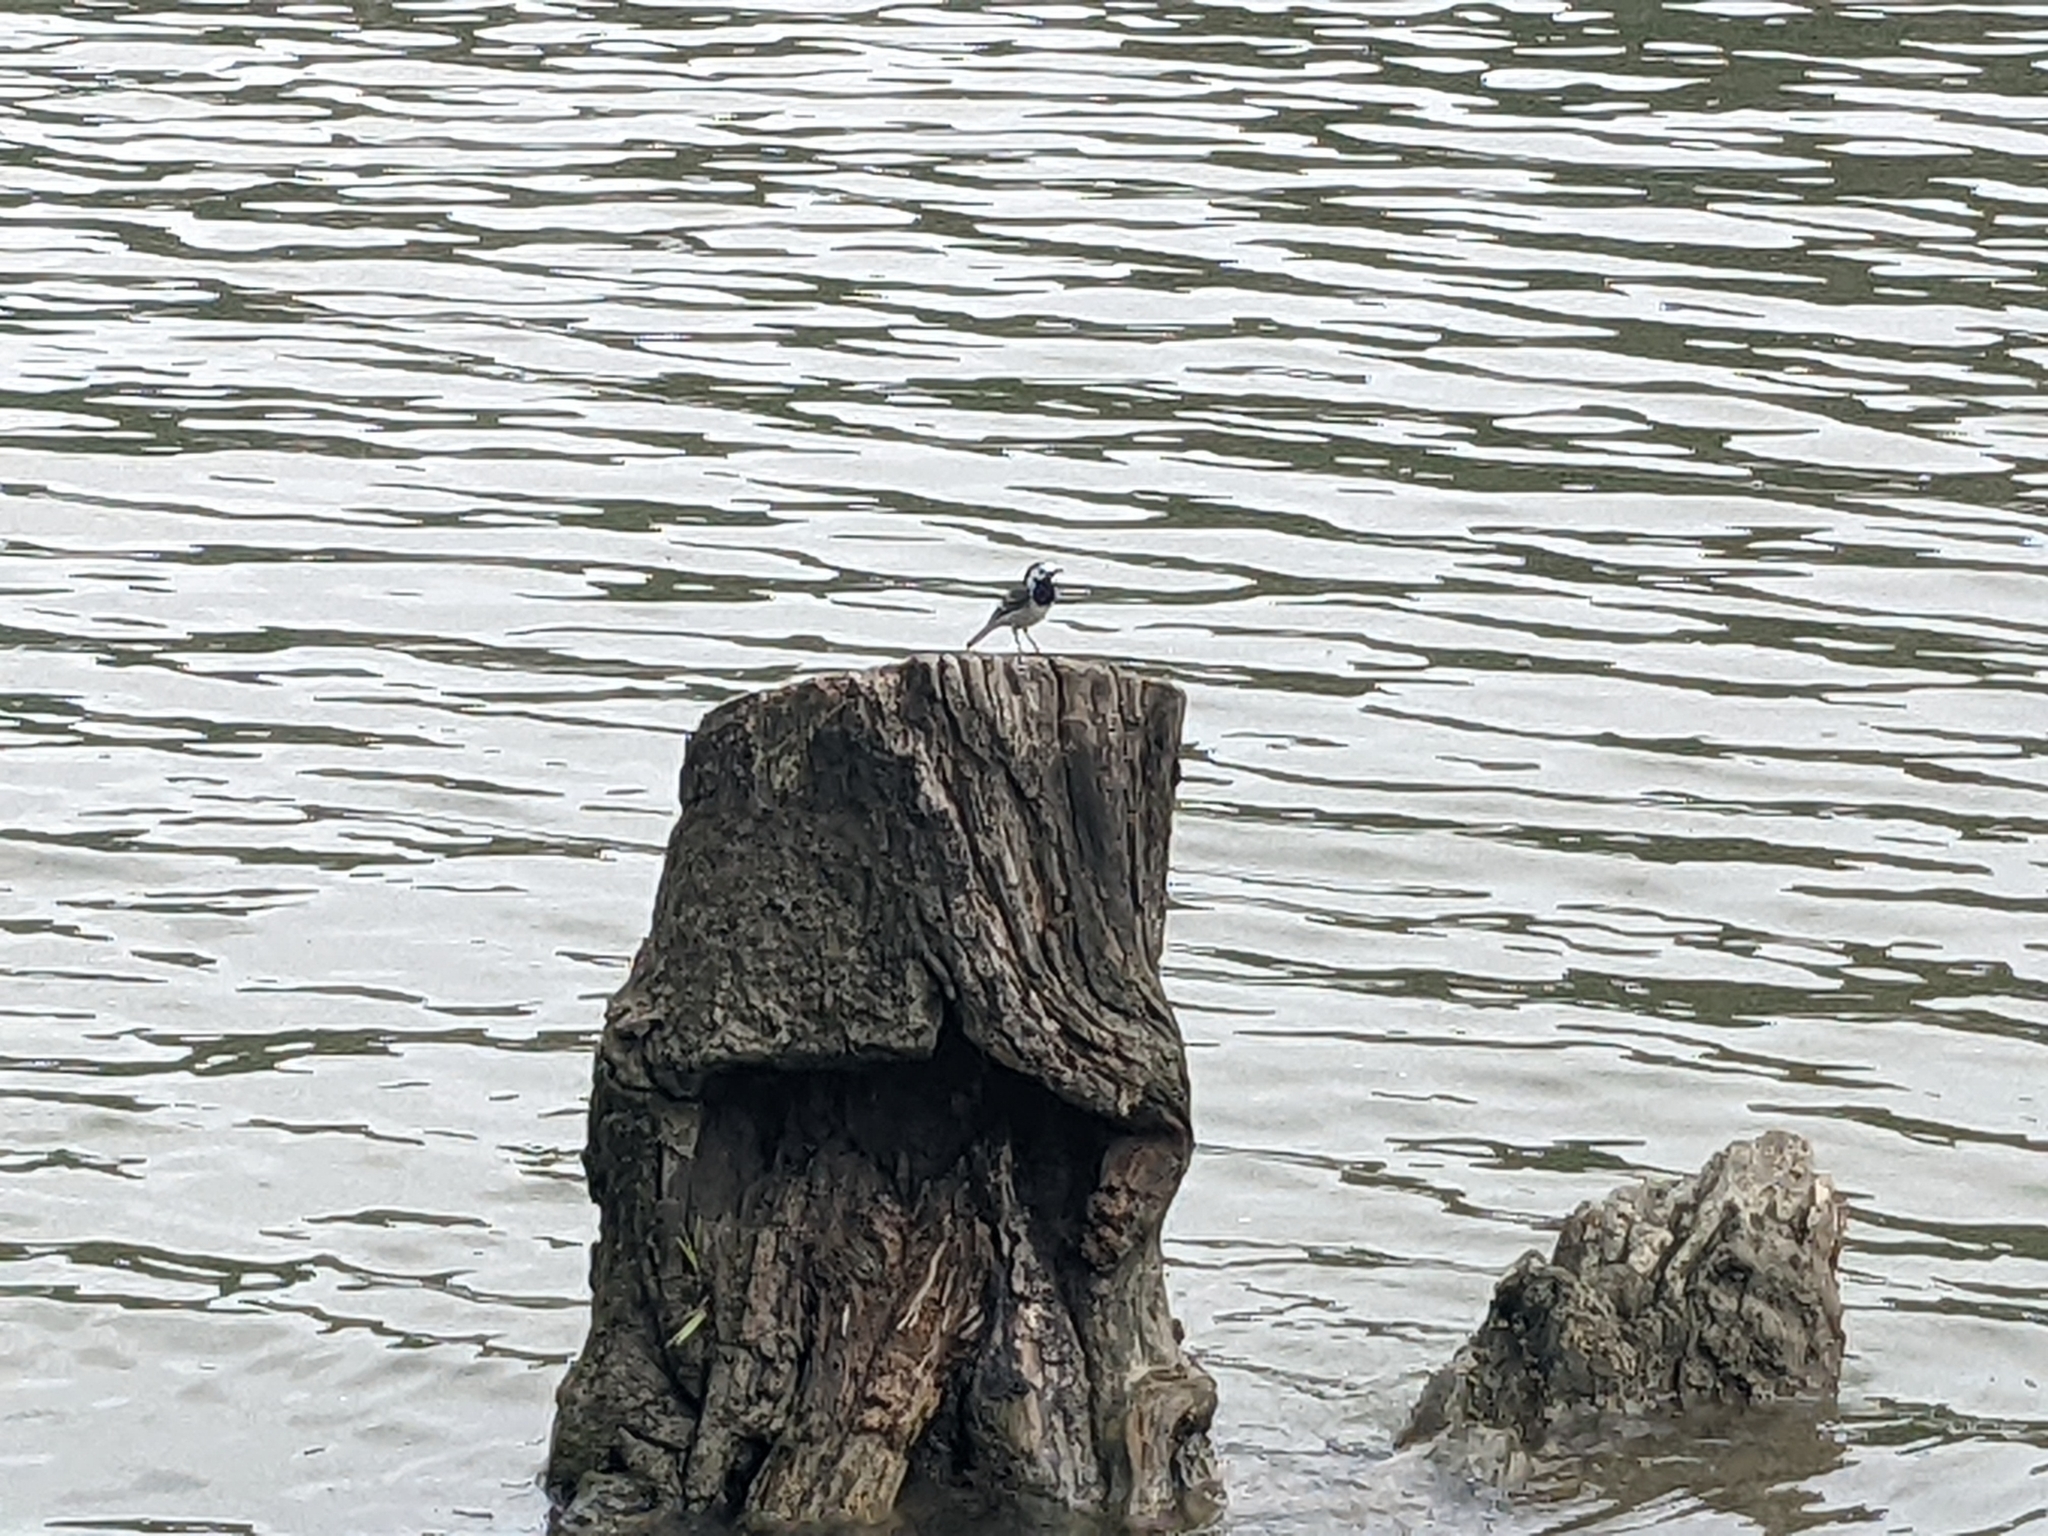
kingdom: Animalia
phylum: Chordata
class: Aves
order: Passeriformes
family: Motacillidae
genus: Motacilla
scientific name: Motacilla alba
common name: White wagtail
